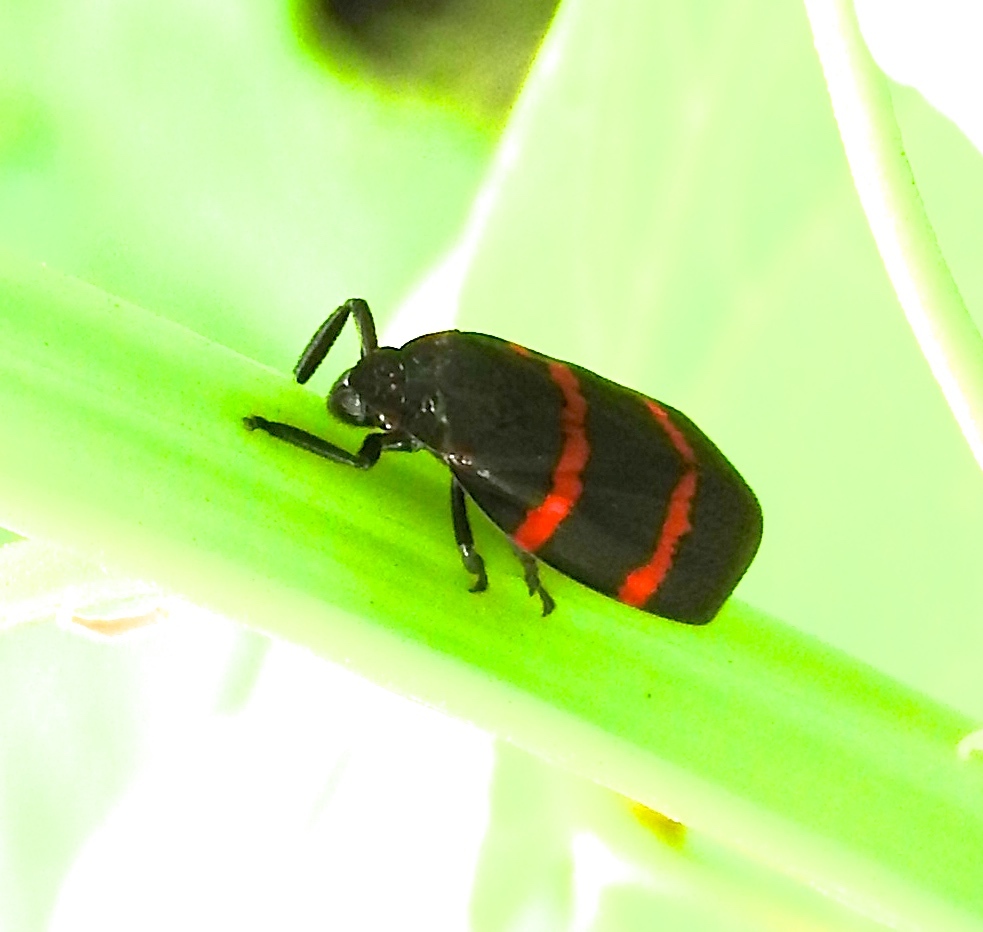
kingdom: Animalia
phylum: Arthropoda
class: Insecta
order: Hemiptera
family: Cercopidae
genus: Huaina
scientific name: Huaina inca
